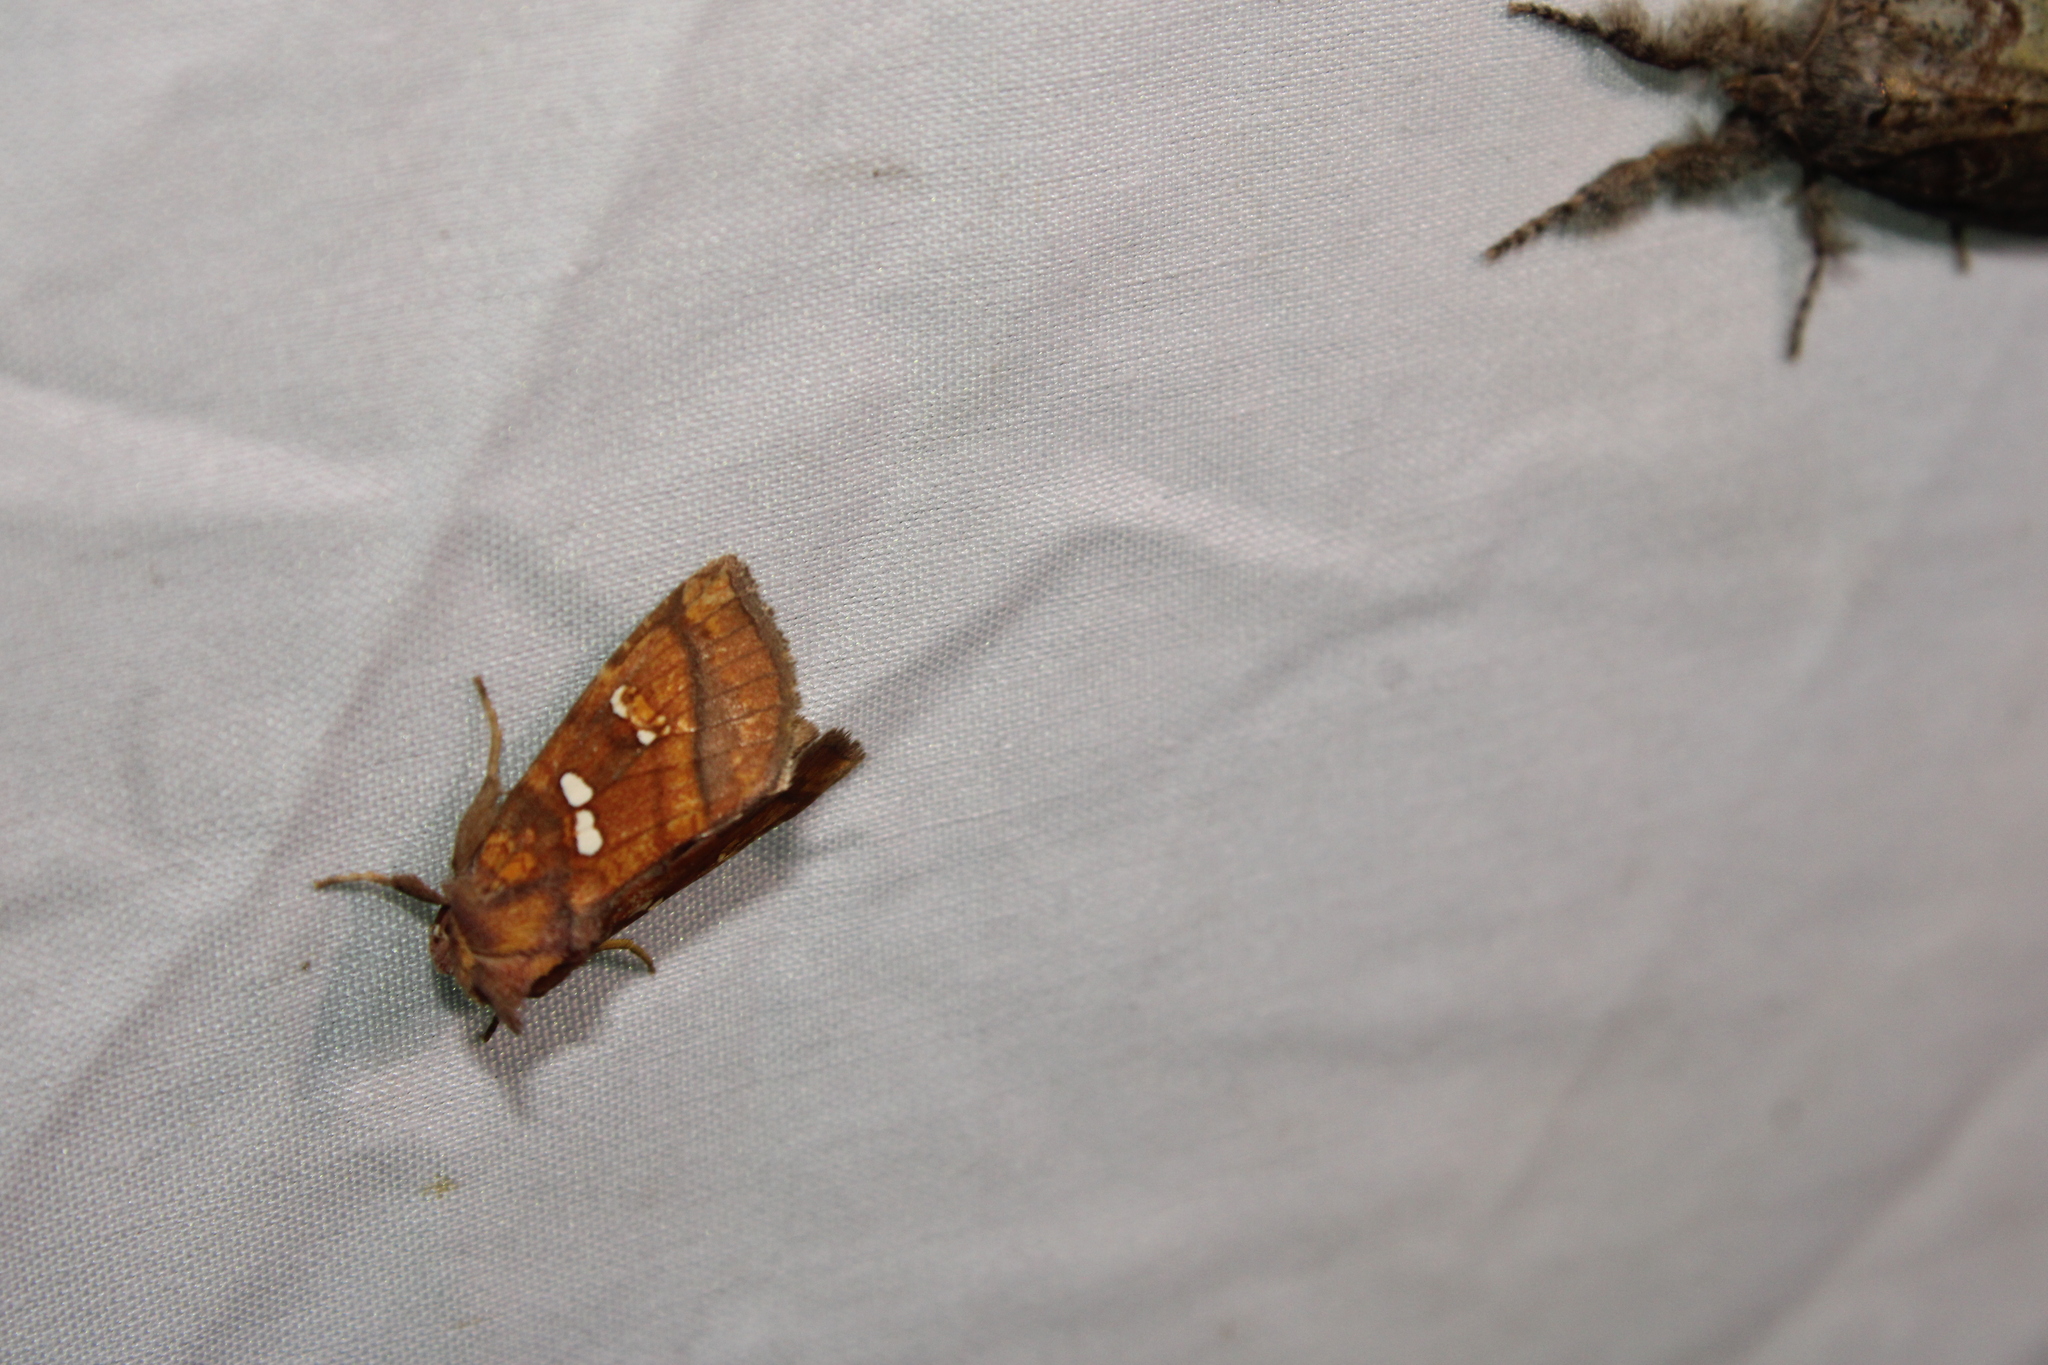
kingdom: Animalia
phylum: Arthropoda
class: Insecta
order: Lepidoptera
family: Noctuidae
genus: Papaipema
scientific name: Papaipema pterisii
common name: Bracken borer moth
